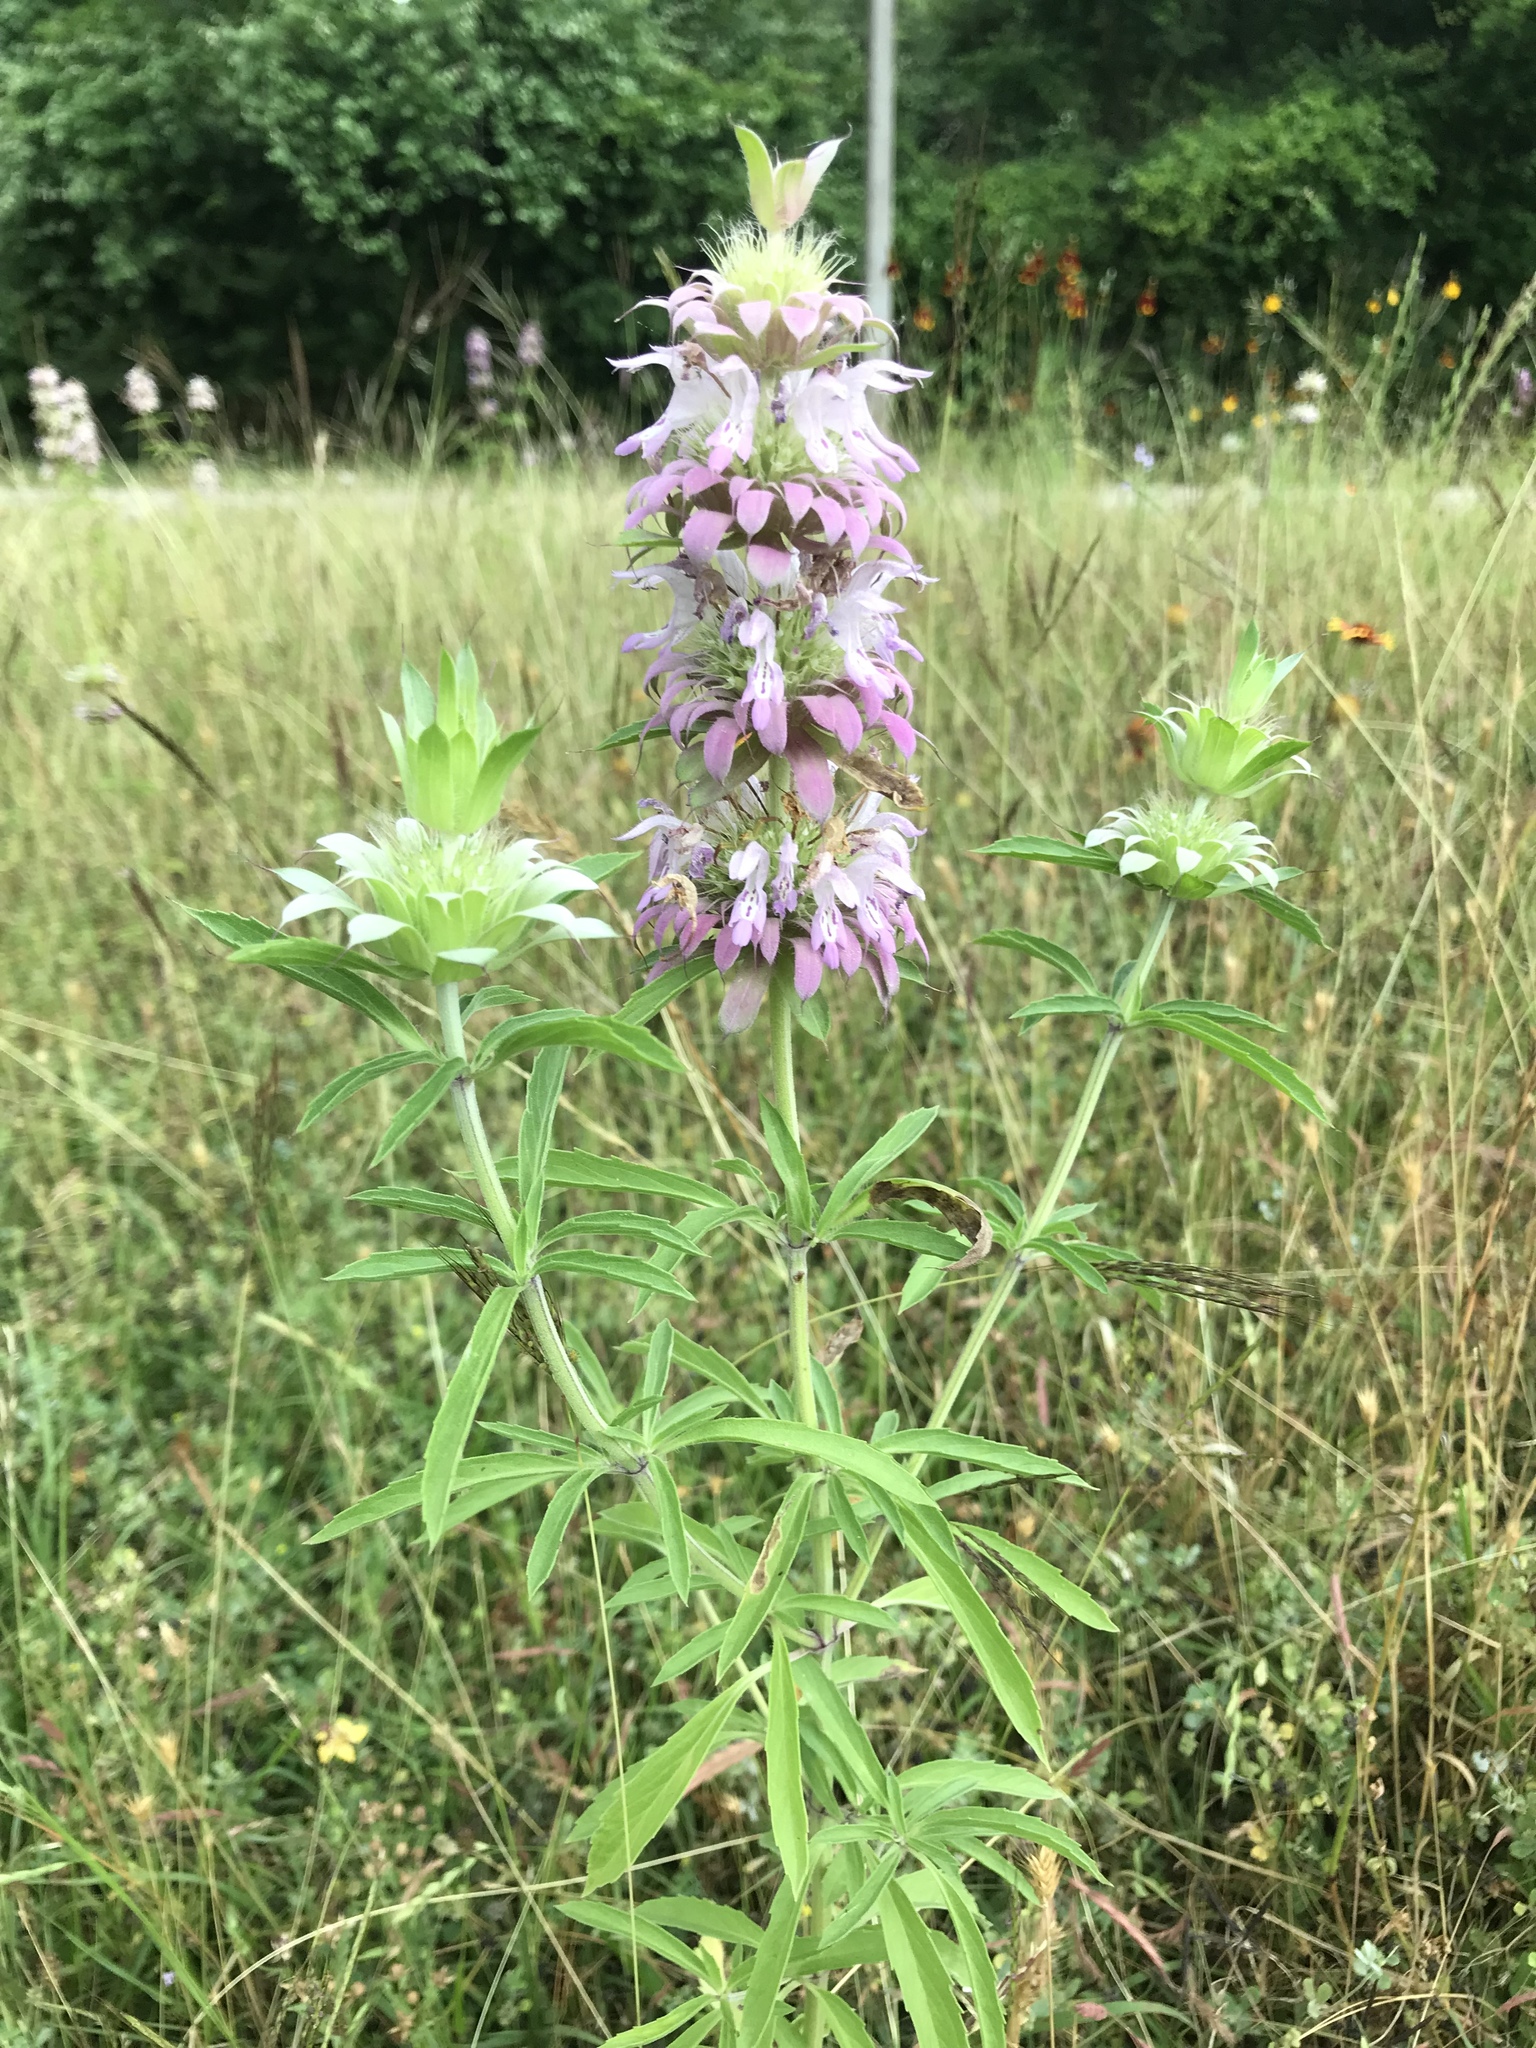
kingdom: Plantae
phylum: Tracheophyta
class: Magnoliopsida
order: Lamiales
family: Lamiaceae
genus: Monarda
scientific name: Monarda citriodora
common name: Lemon beebalm
